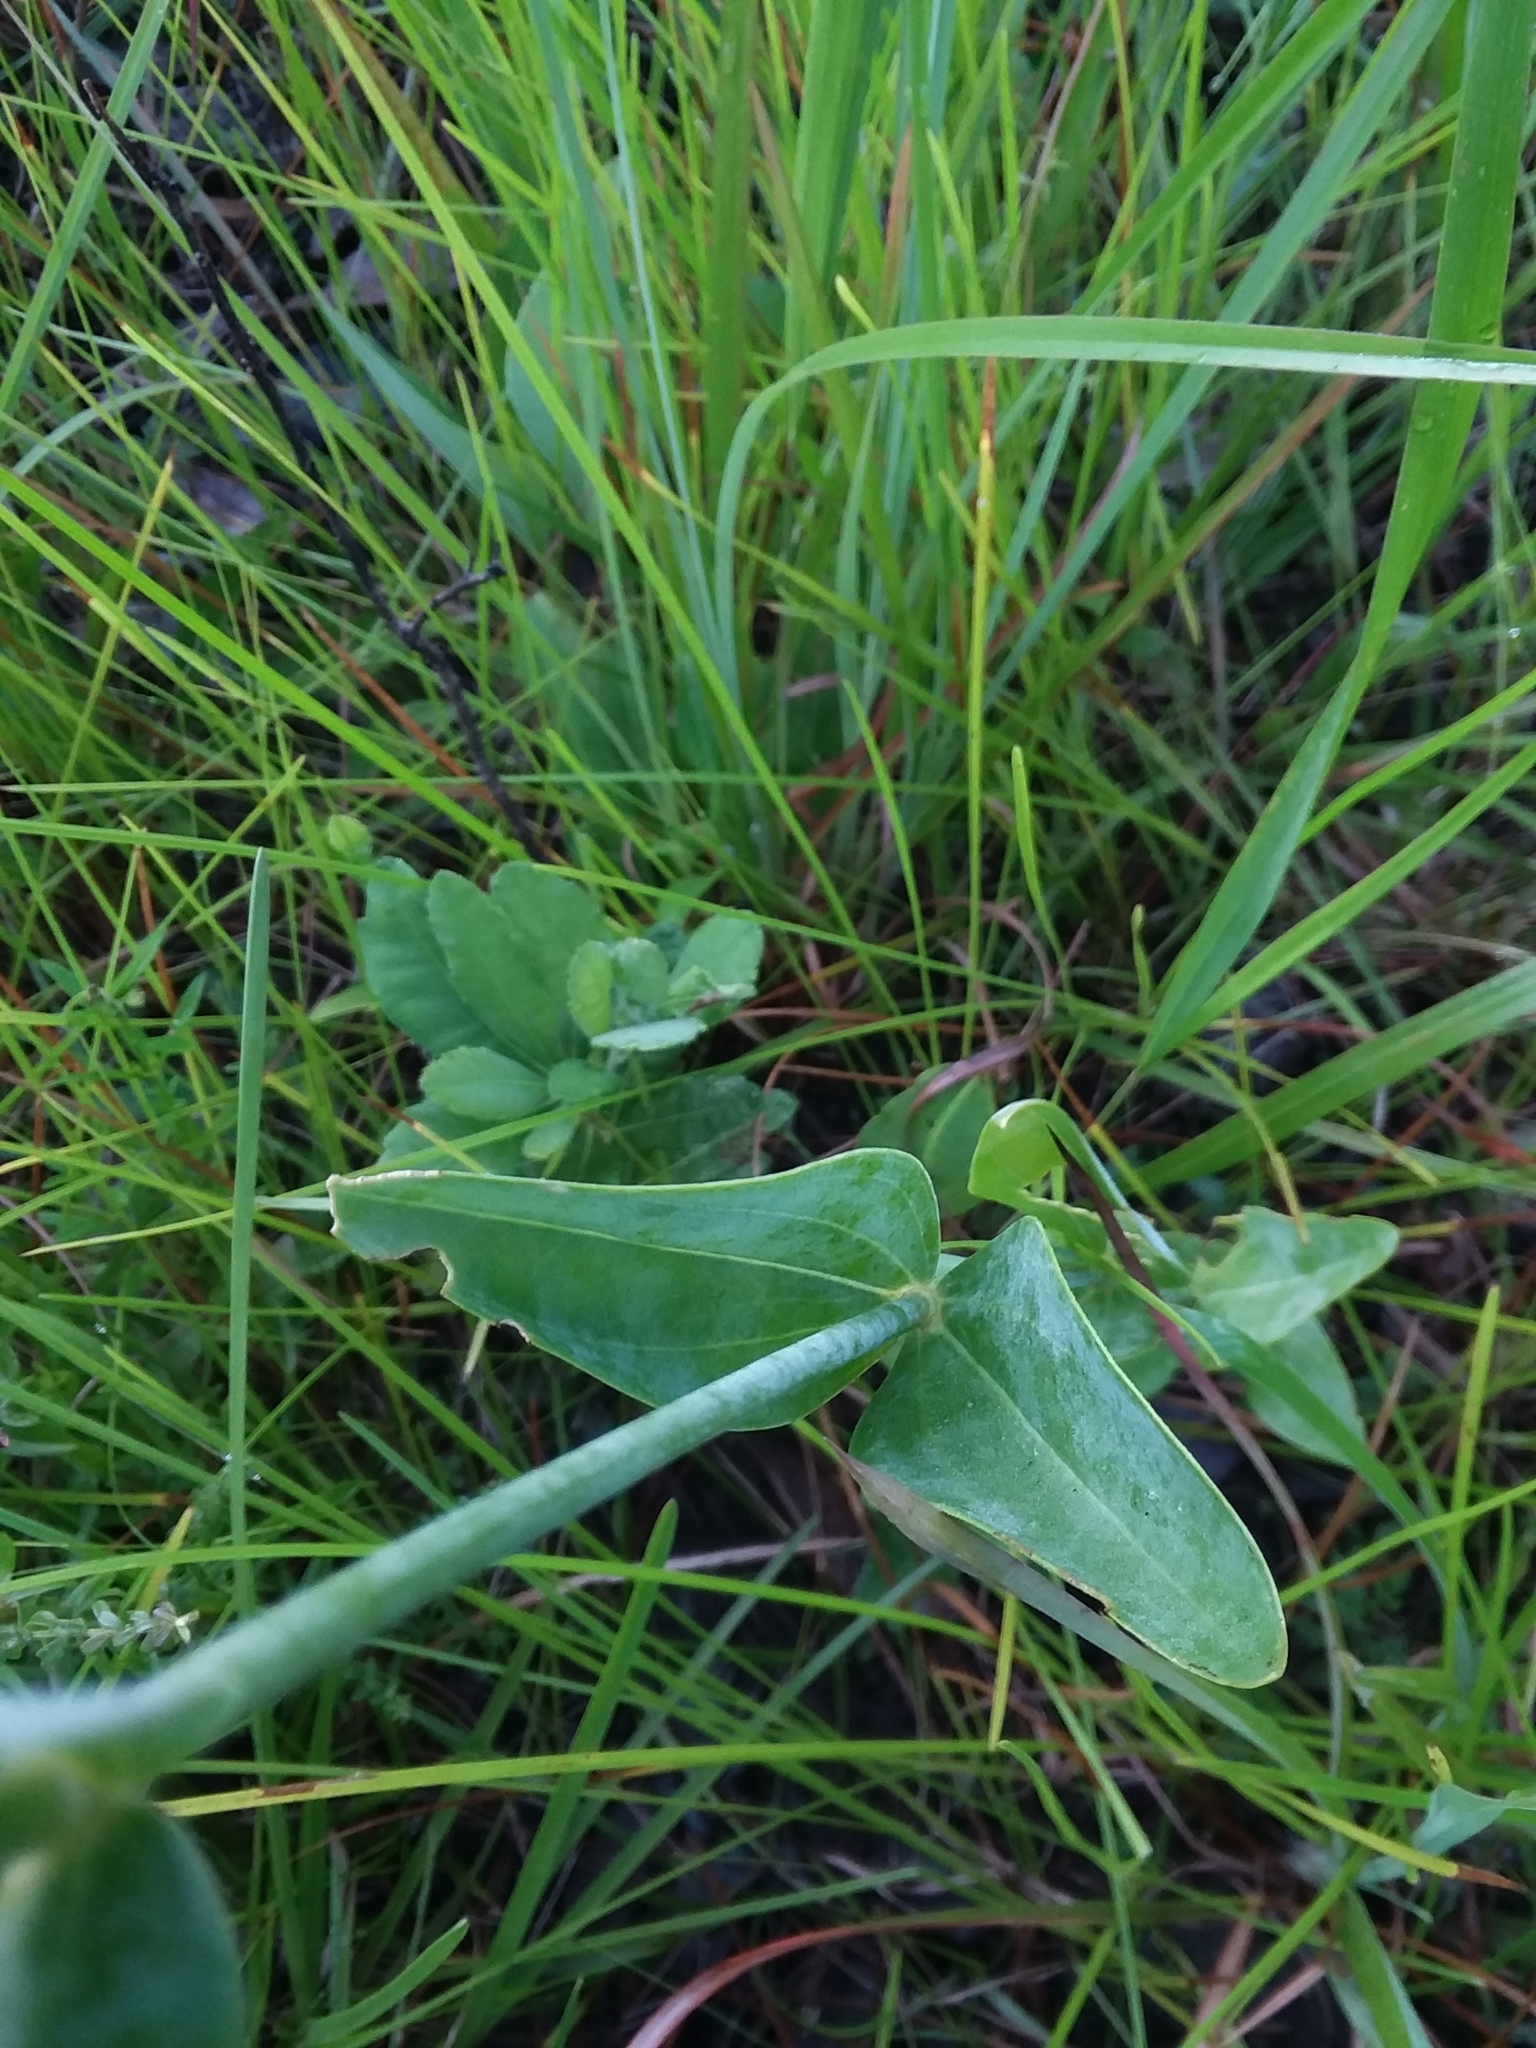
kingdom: Plantae
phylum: Tracheophyta
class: Magnoliopsida
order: Gentianales
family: Gentianaceae
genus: Sabatia
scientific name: Sabatia macrophylla
